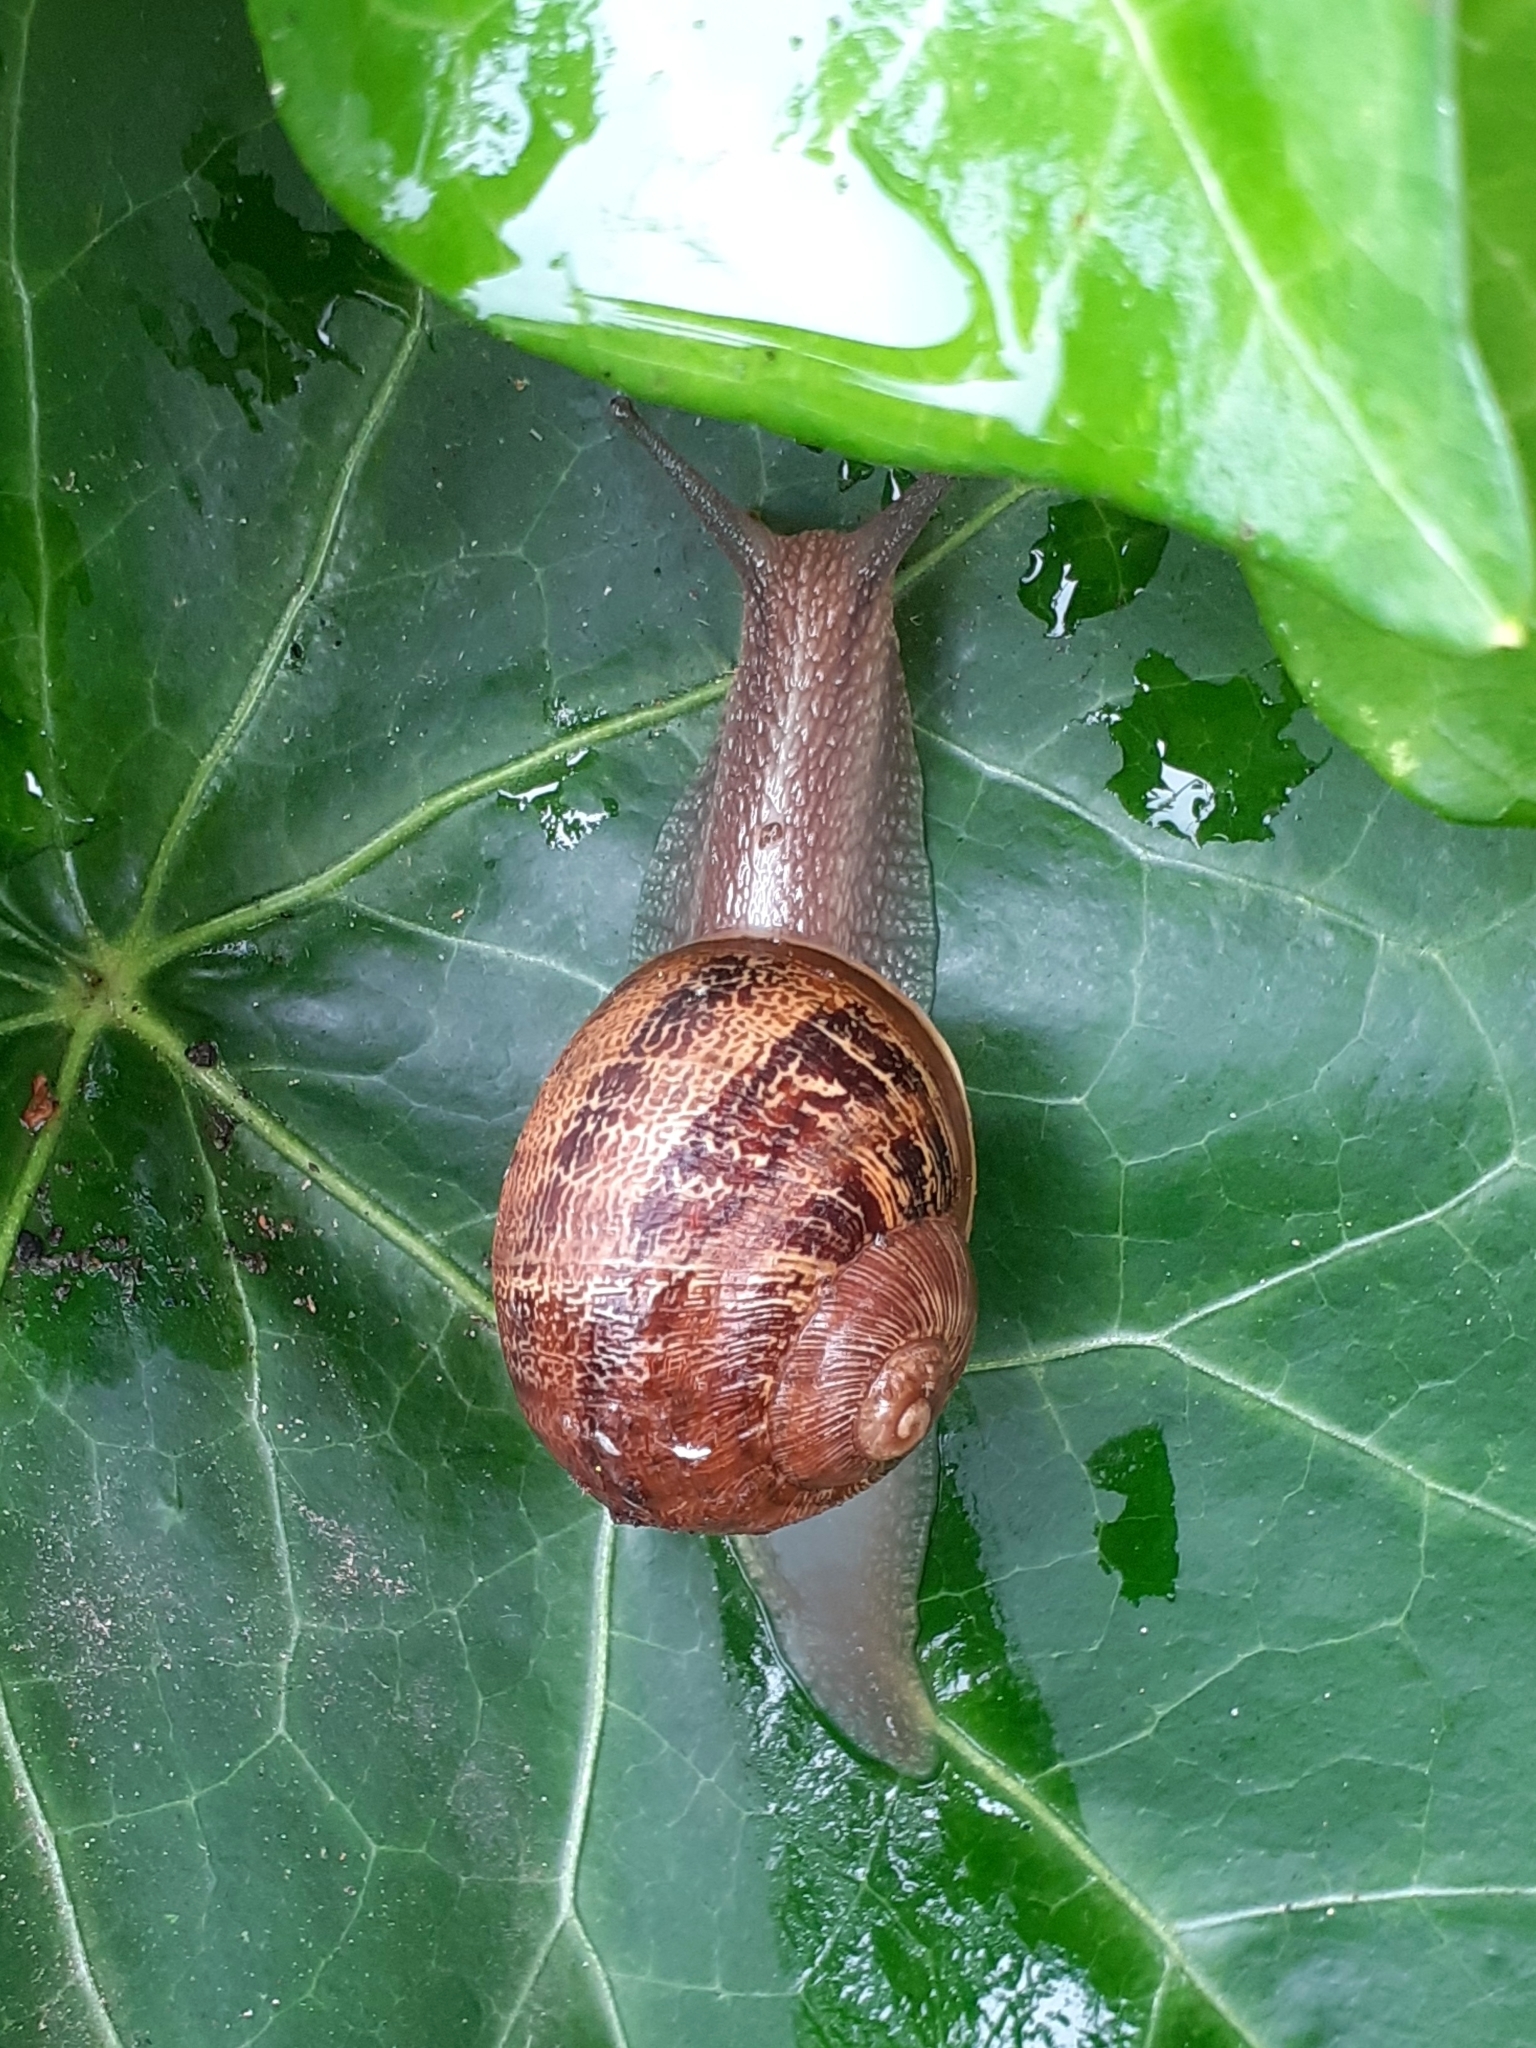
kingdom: Animalia
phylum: Mollusca
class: Gastropoda
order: Stylommatophora
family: Helicidae
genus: Cornu
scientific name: Cornu aspersum
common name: Brown garden snail
